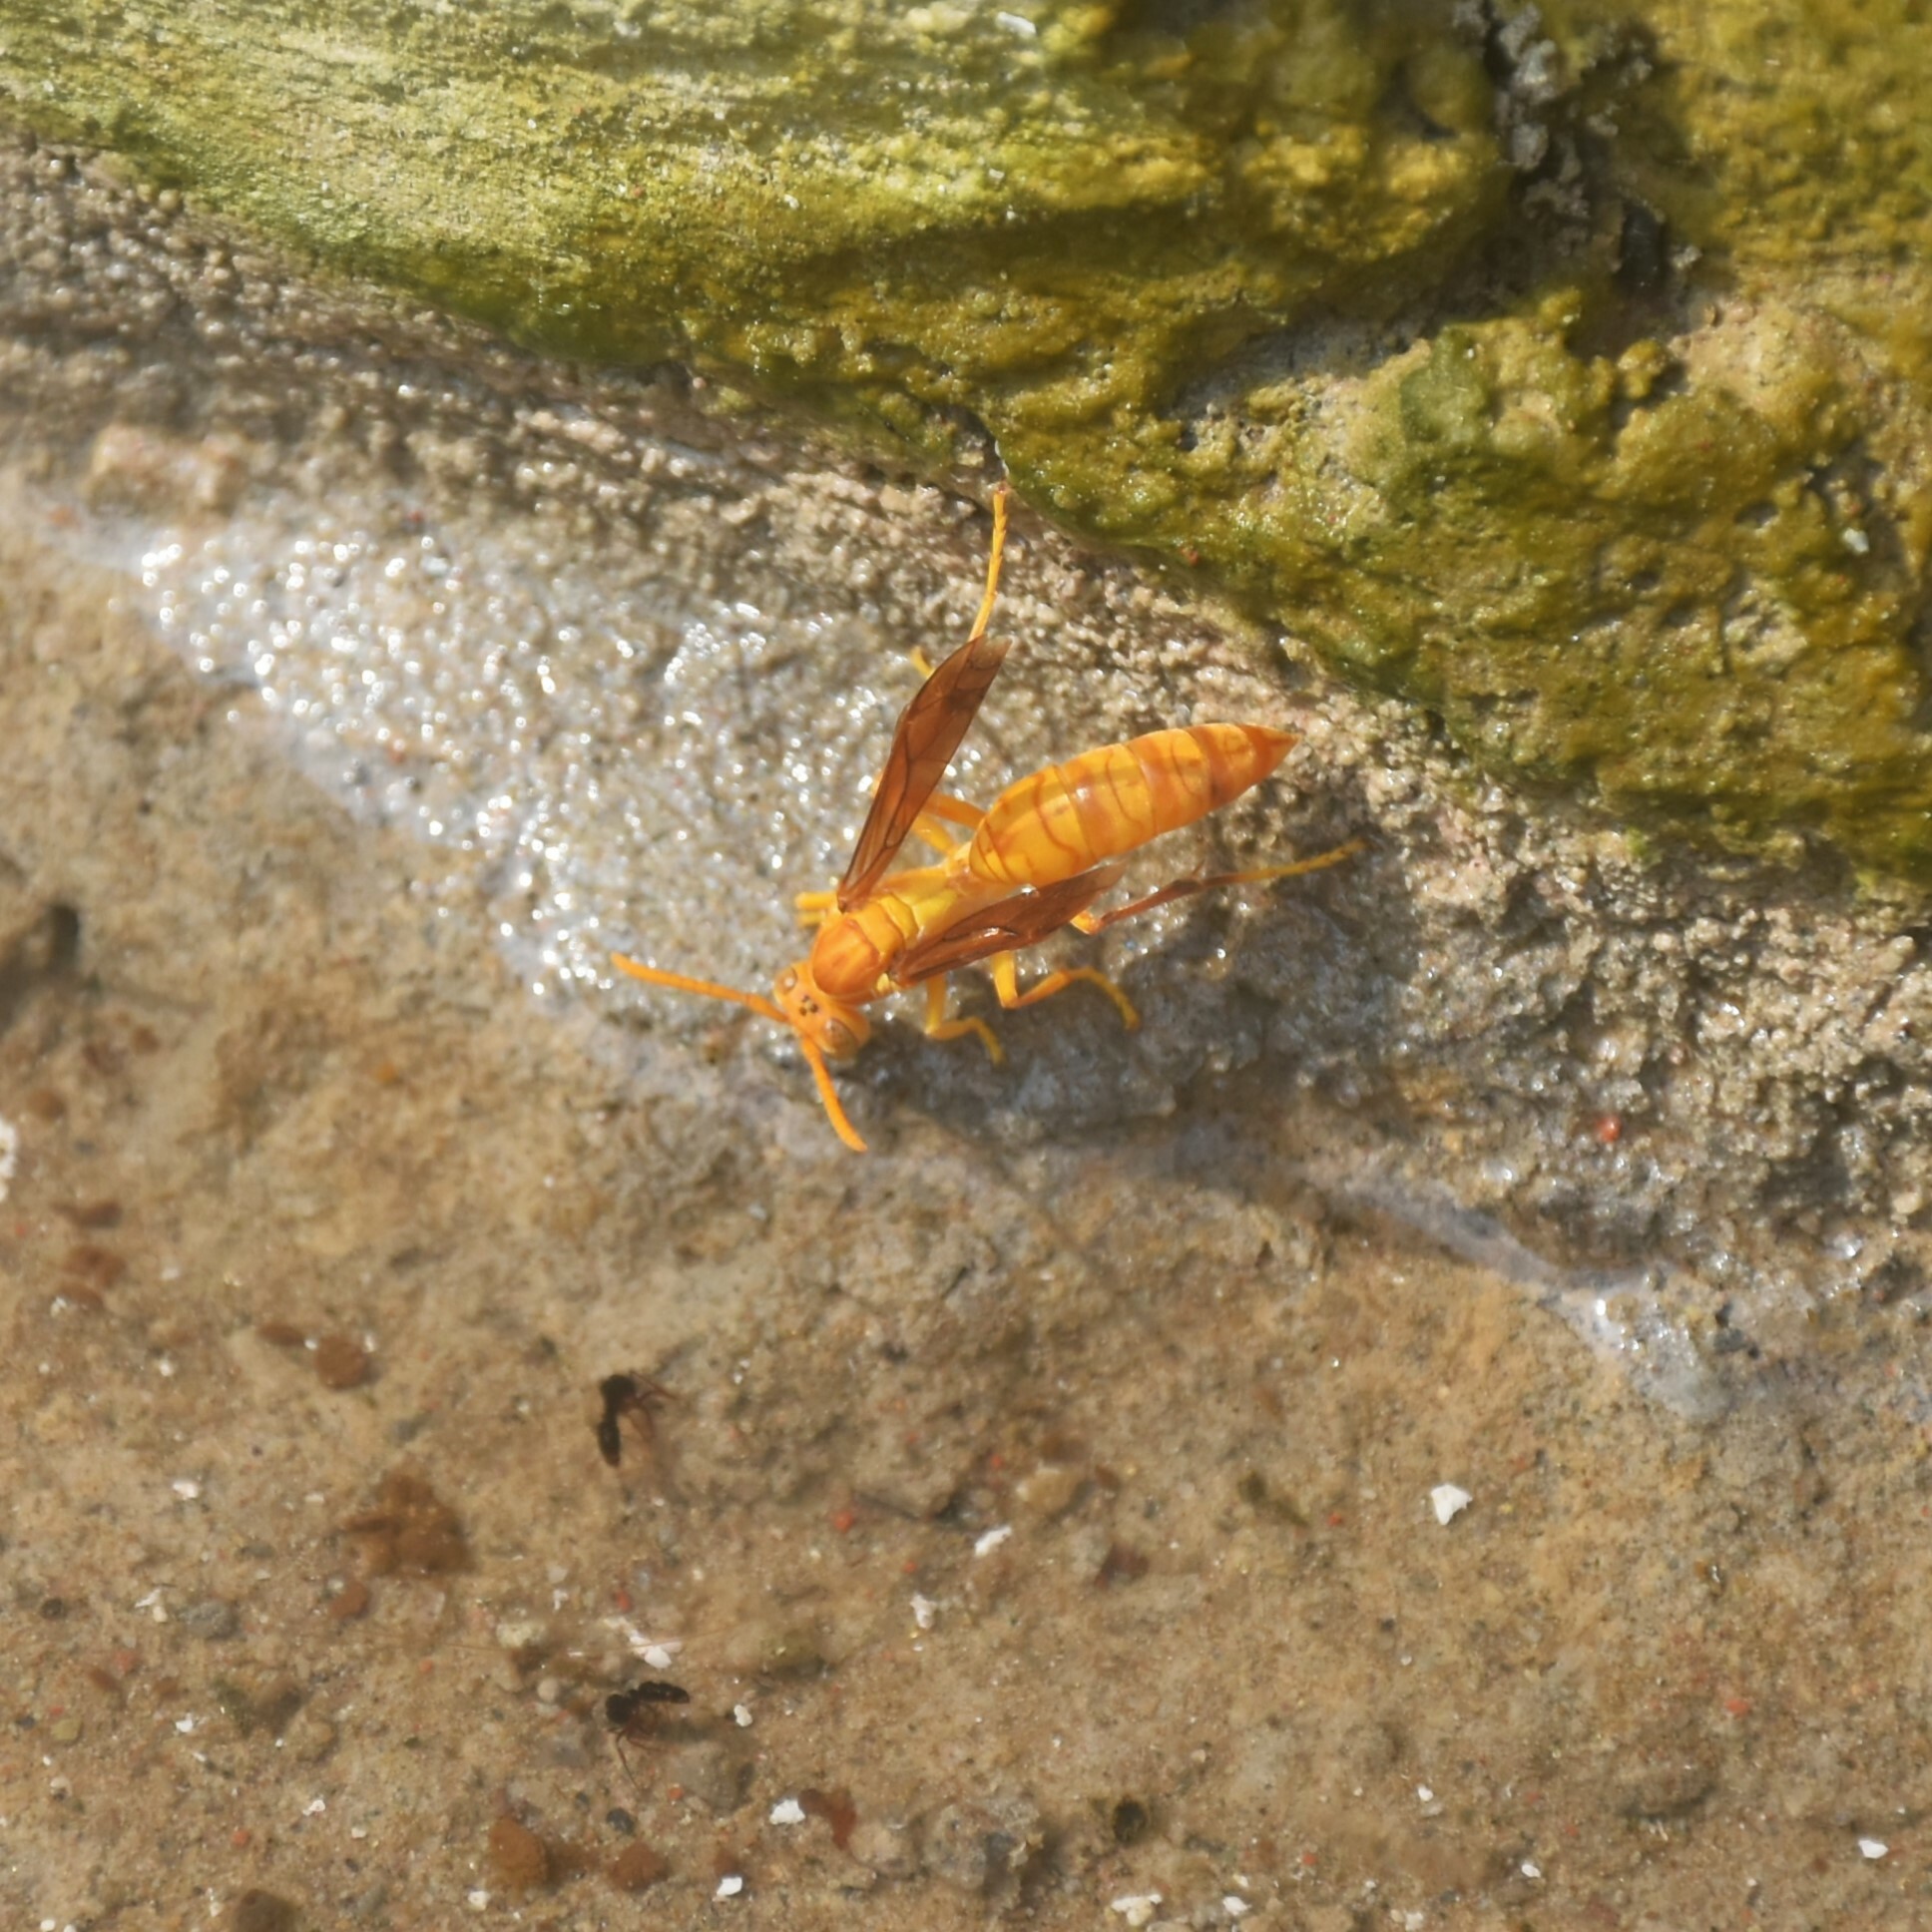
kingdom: Animalia
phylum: Arthropoda
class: Insecta
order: Hymenoptera
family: Eumenidae
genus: Polistes
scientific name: Polistes wattii
